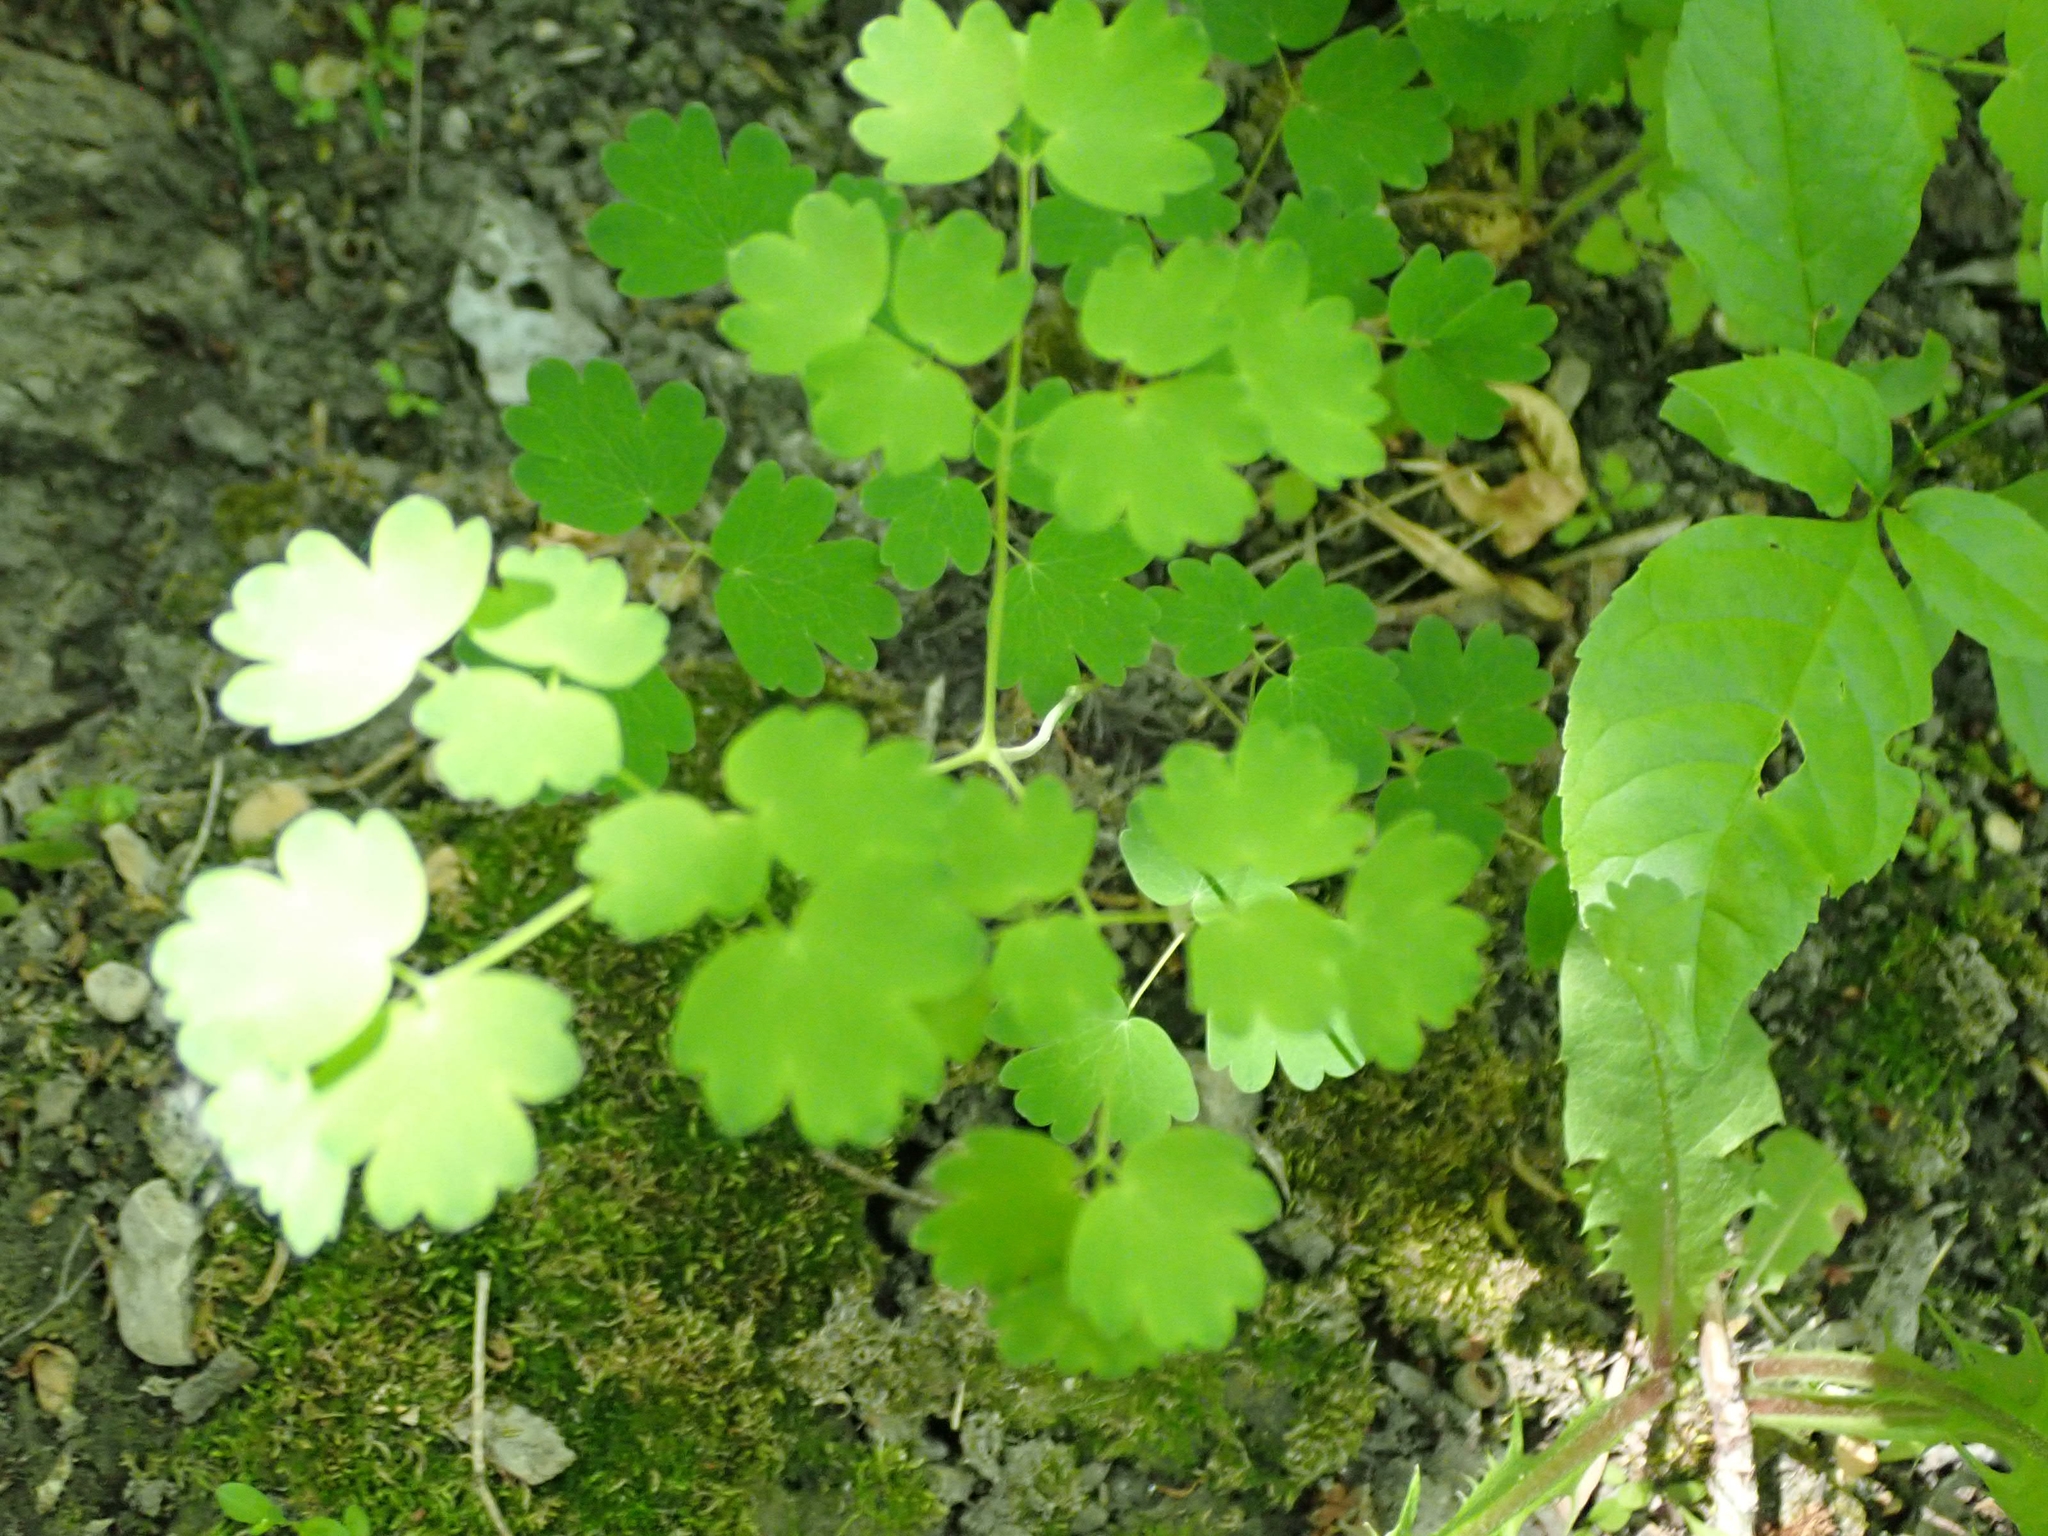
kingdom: Plantae
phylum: Tracheophyta
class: Magnoliopsida
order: Ranunculales
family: Ranunculaceae
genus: Thalictrum
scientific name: Thalictrum venulosum
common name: Early meadow-rue
